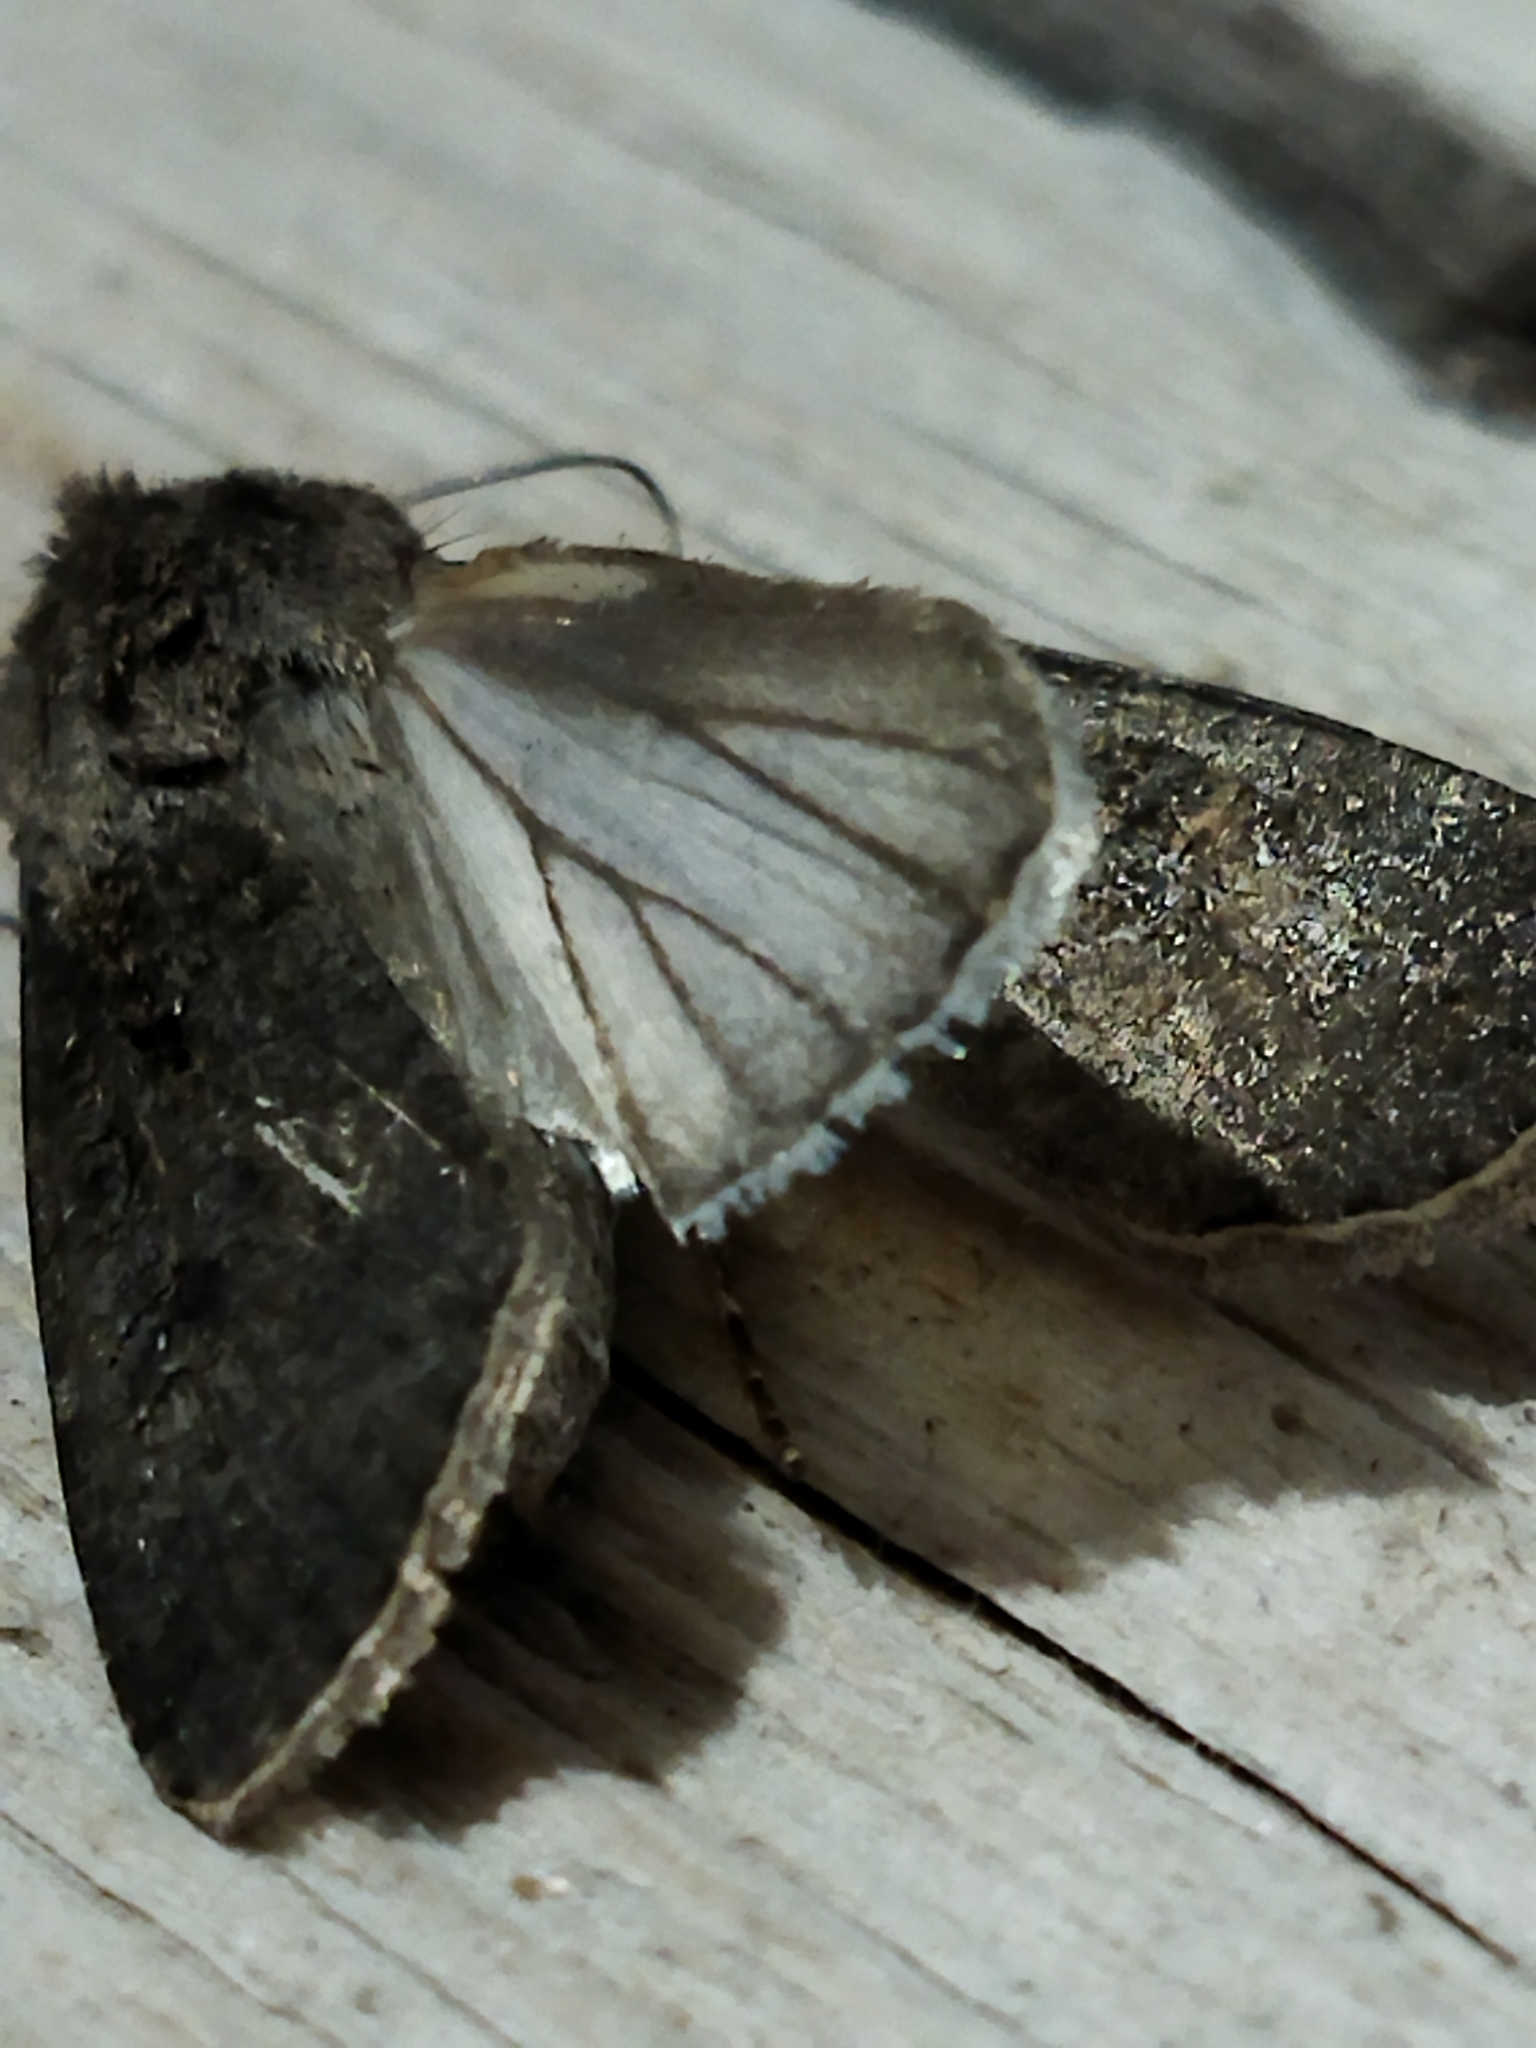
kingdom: Animalia
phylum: Arthropoda
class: Insecta
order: Lepidoptera
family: Noctuidae
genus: Agrotis
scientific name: Agrotis segetum
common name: Turnip moth
